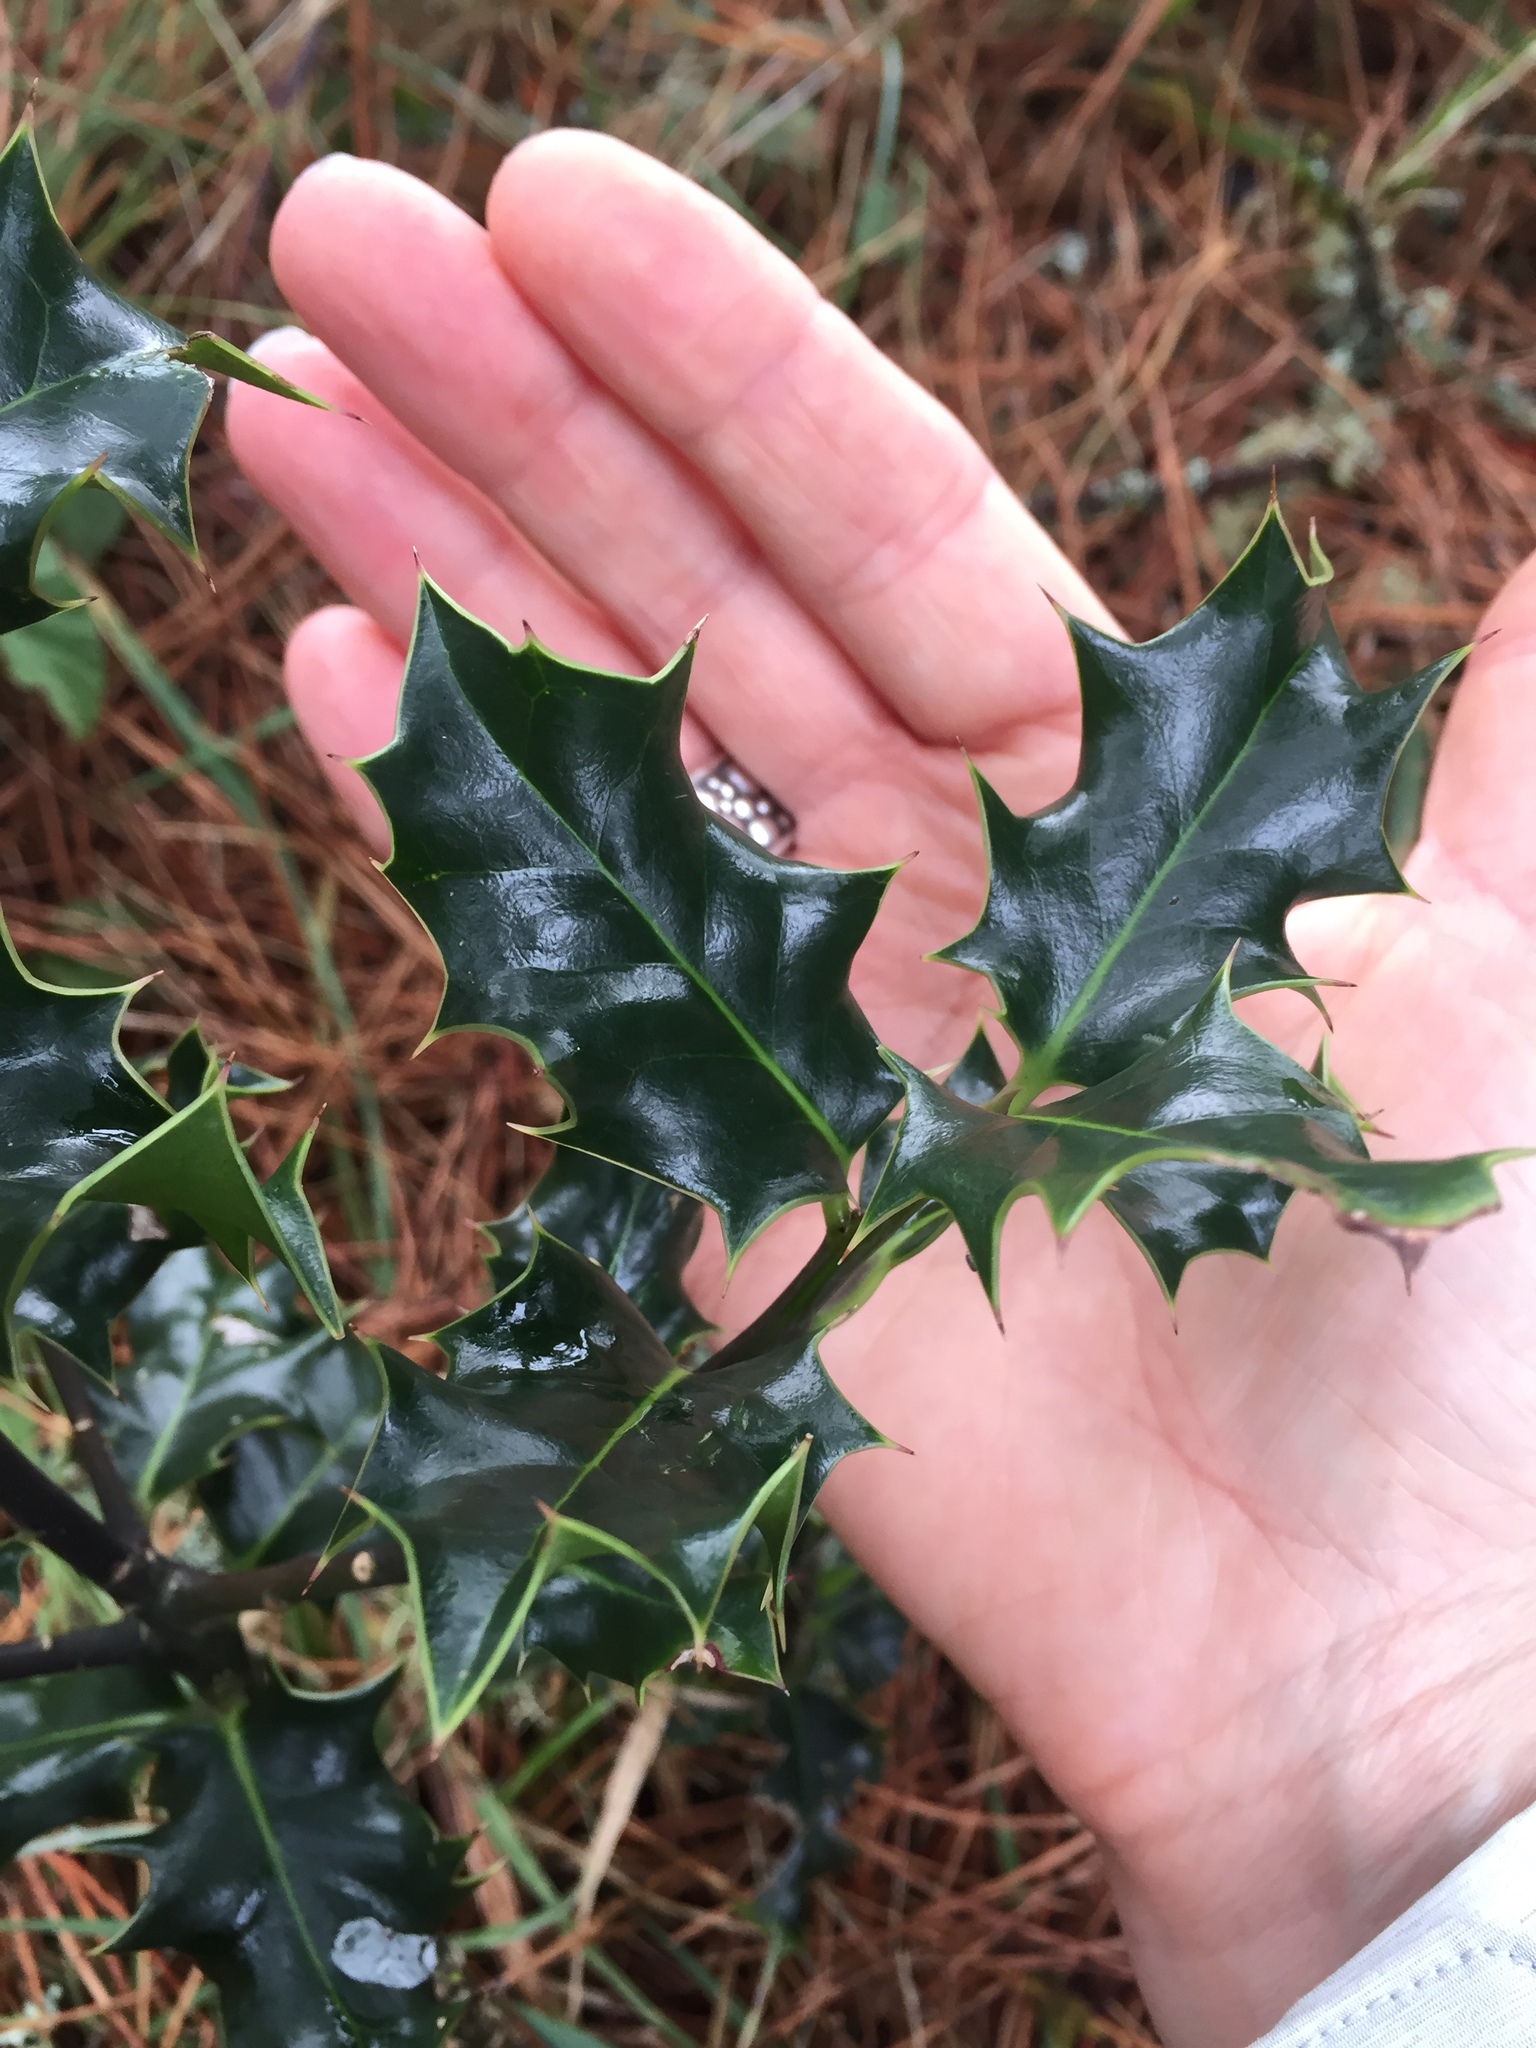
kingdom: Plantae
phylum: Tracheophyta
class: Magnoliopsida
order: Aquifoliales
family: Aquifoliaceae
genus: Ilex
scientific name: Ilex aquifolium
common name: English holly
